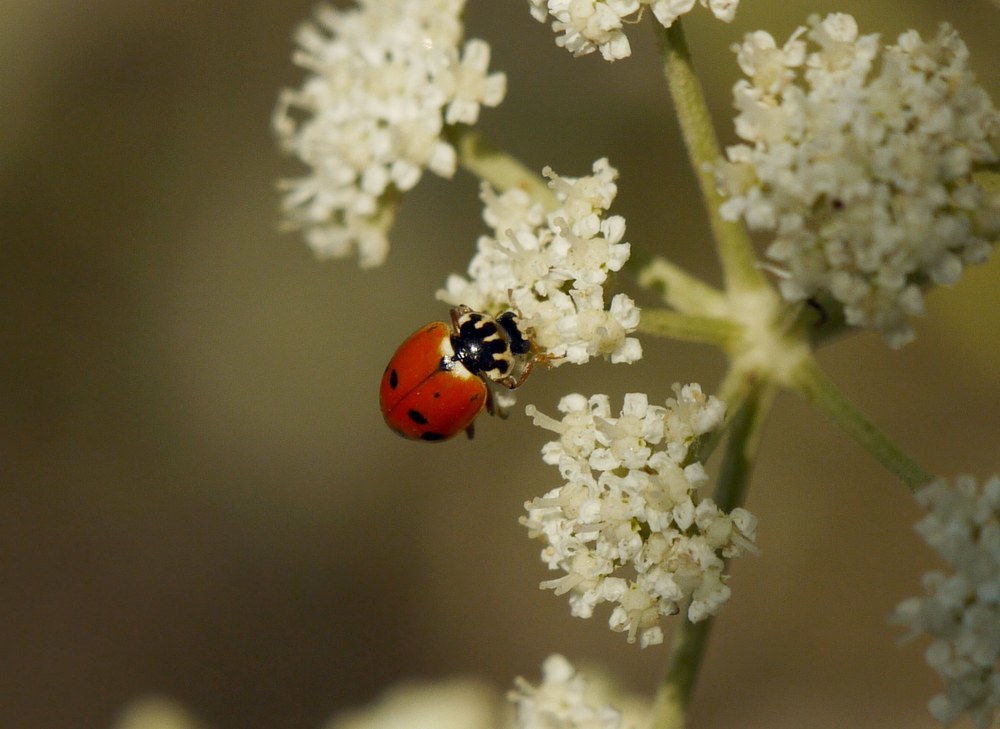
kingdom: Animalia
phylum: Arthropoda
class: Insecta
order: Coleoptera
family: Coccinellidae
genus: Hippodamia
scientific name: Hippodamia variegata
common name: Ladybird beetle
